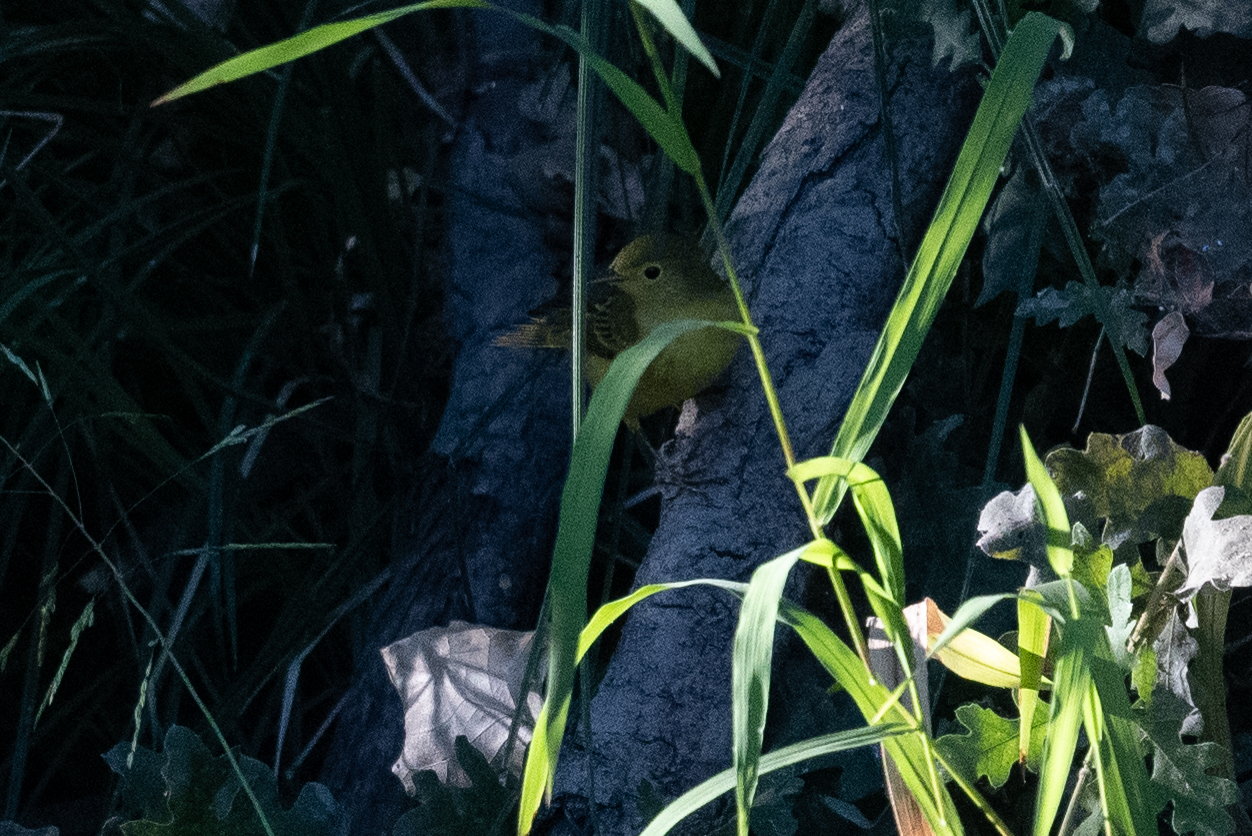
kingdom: Animalia
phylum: Chordata
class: Aves
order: Passeriformes
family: Parulidae
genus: Setophaga
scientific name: Setophaga petechia
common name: Yellow warbler
